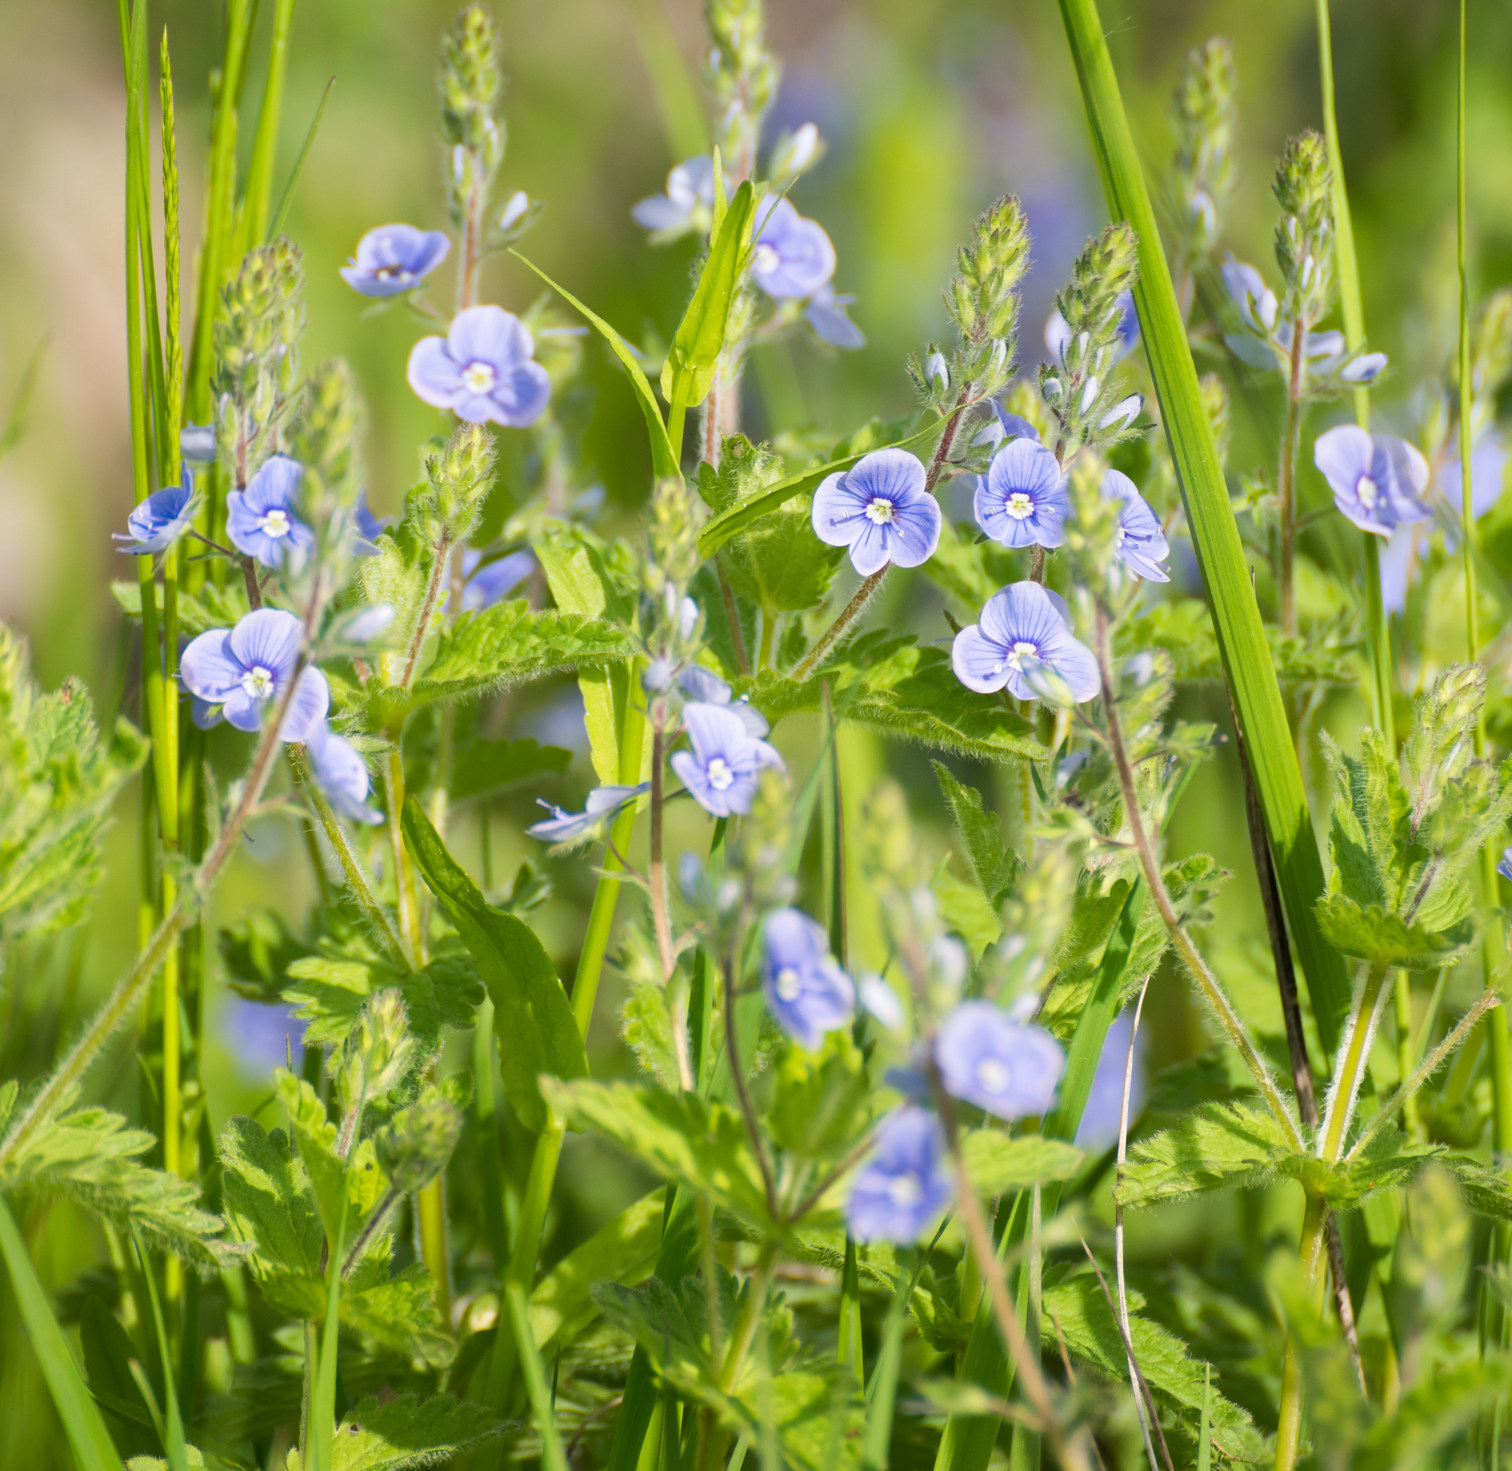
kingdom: Plantae
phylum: Tracheophyta
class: Magnoliopsida
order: Lamiales
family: Plantaginaceae
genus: Veronica
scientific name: Veronica chamaedrys
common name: Germander speedwell
